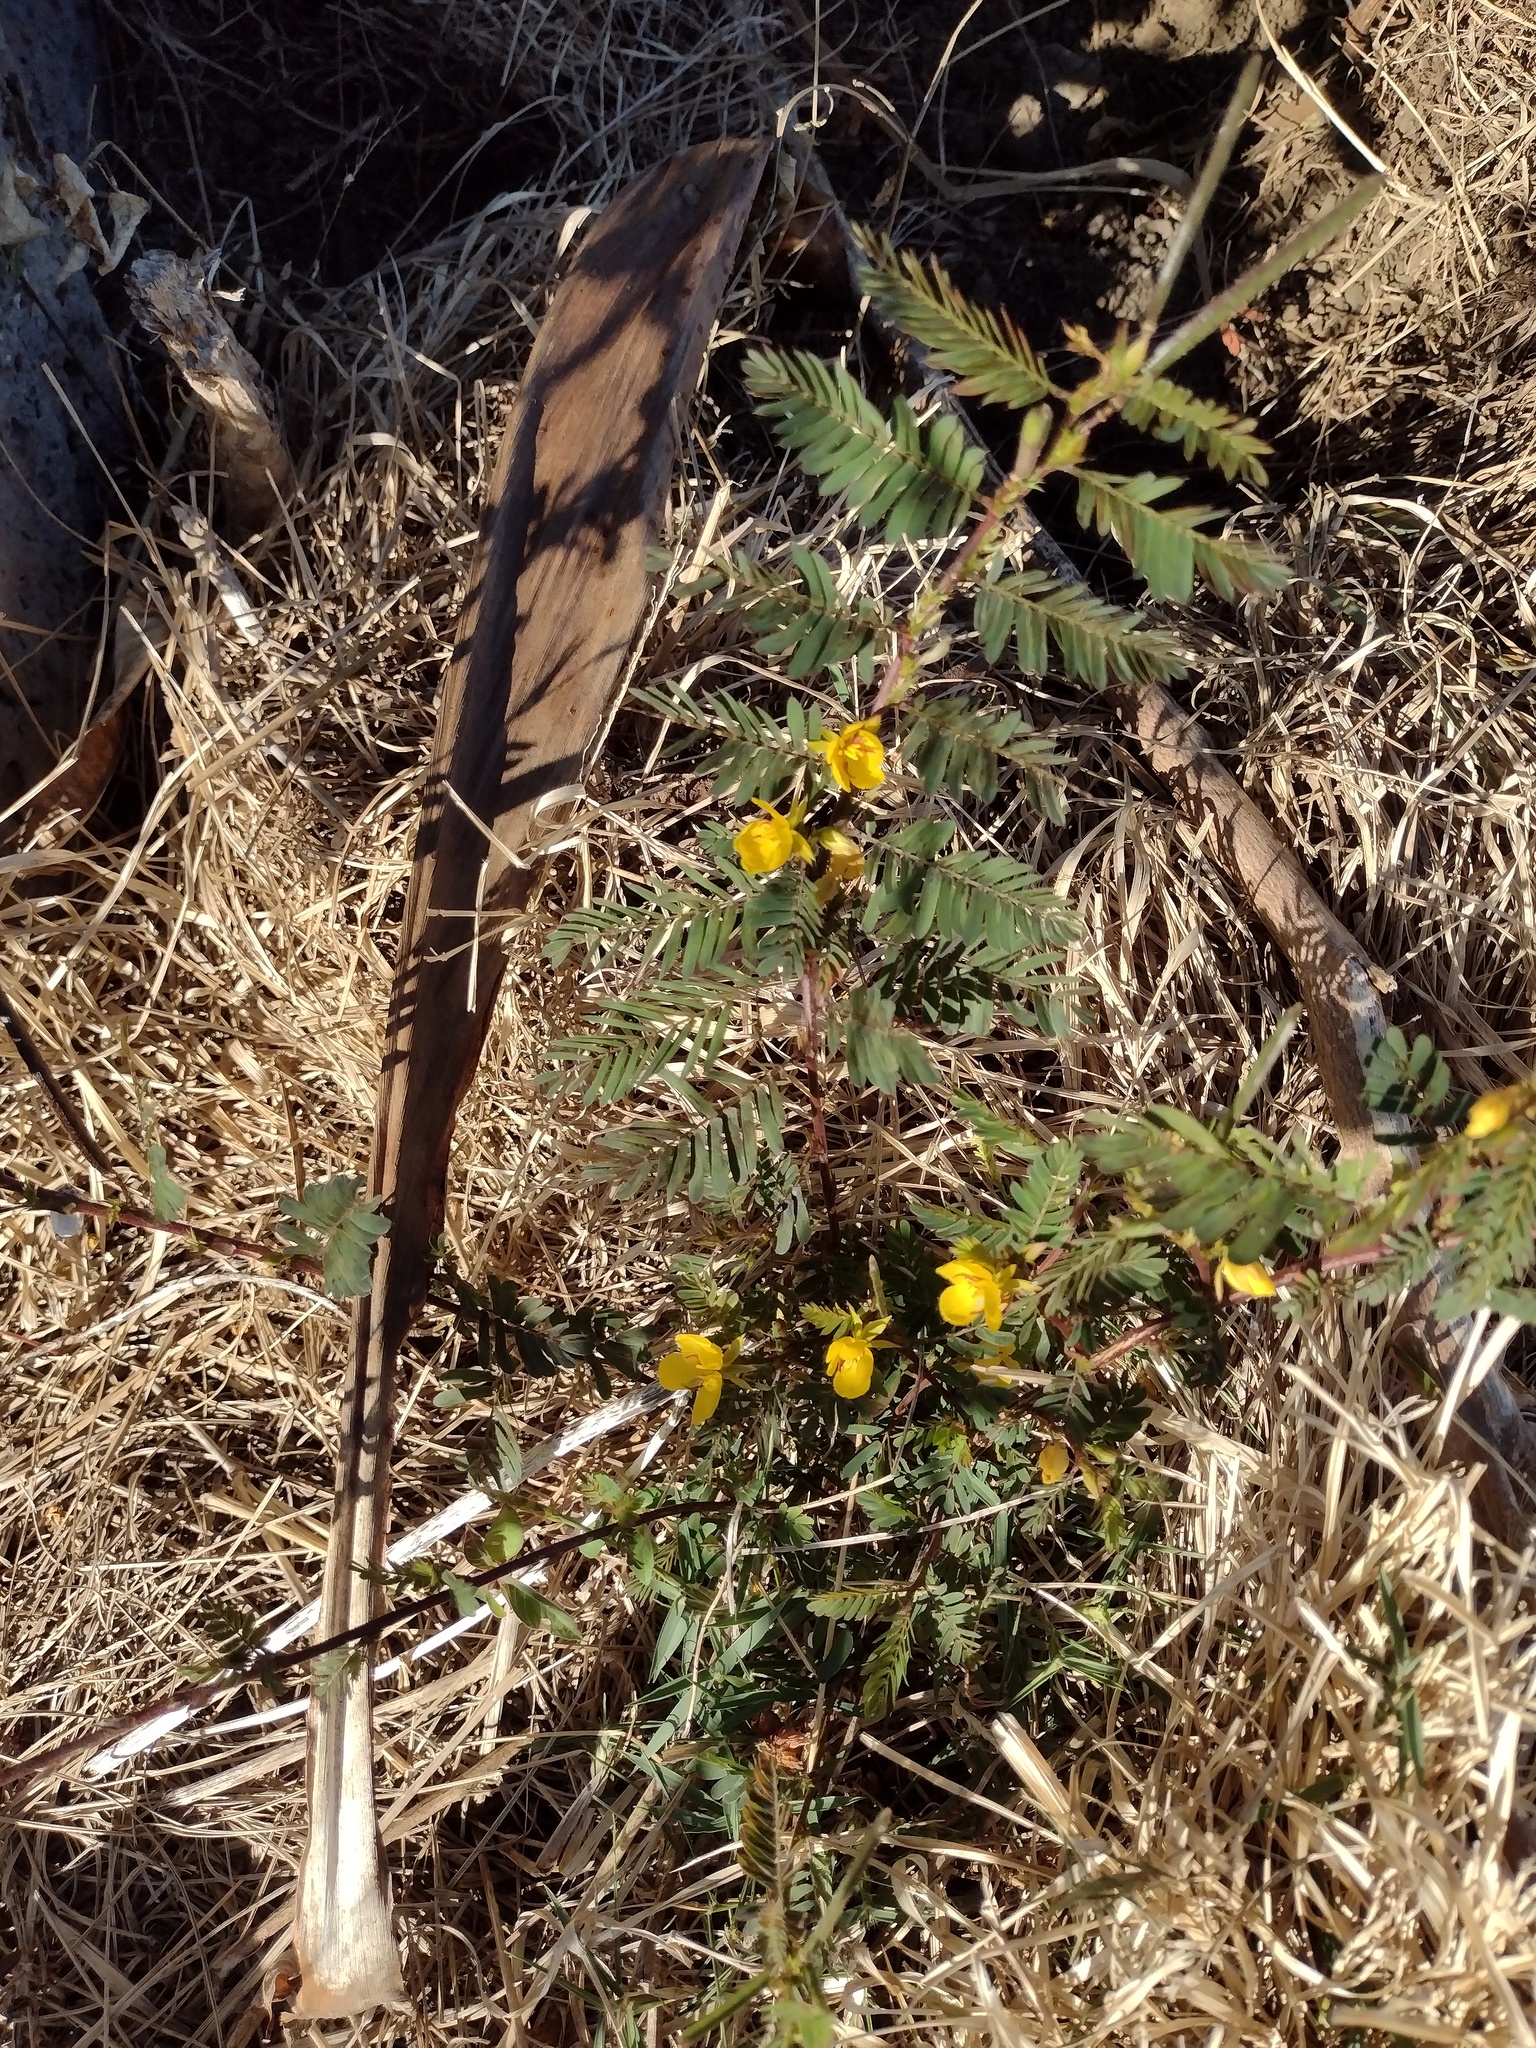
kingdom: Plantae
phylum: Tracheophyta
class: Magnoliopsida
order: Fabales
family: Fabaceae
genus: Chamaecrista
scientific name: Chamaecrista nictitans
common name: Sensitive cassia
